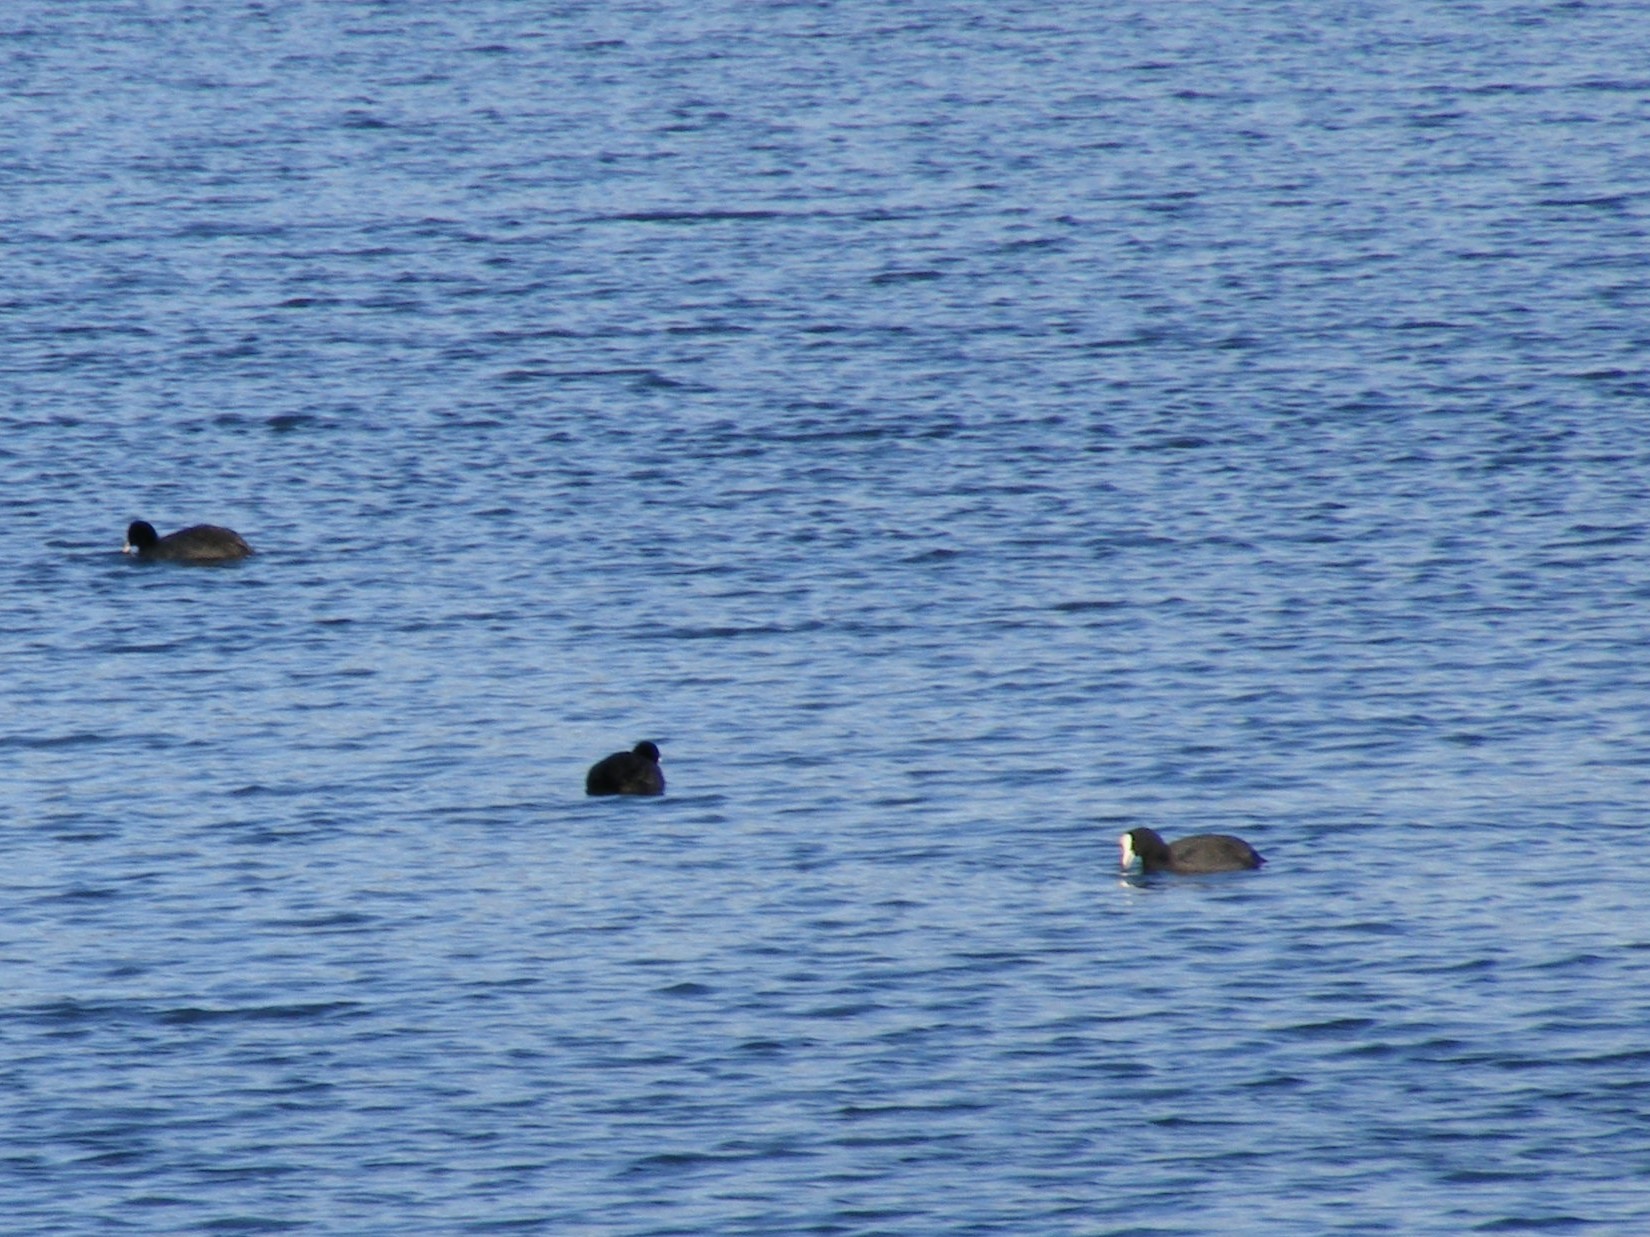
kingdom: Animalia
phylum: Chordata
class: Aves
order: Gruiformes
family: Rallidae
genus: Fulica
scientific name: Fulica atra
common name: Eurasian coot
